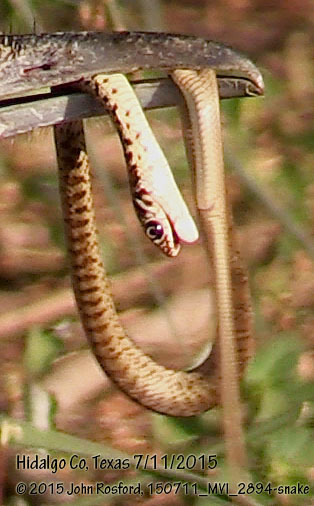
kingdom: Animalia
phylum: Chordata
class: Squamata
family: Colubridae
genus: Masticophis
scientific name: Masticophis flagellum
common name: Coachwhip
